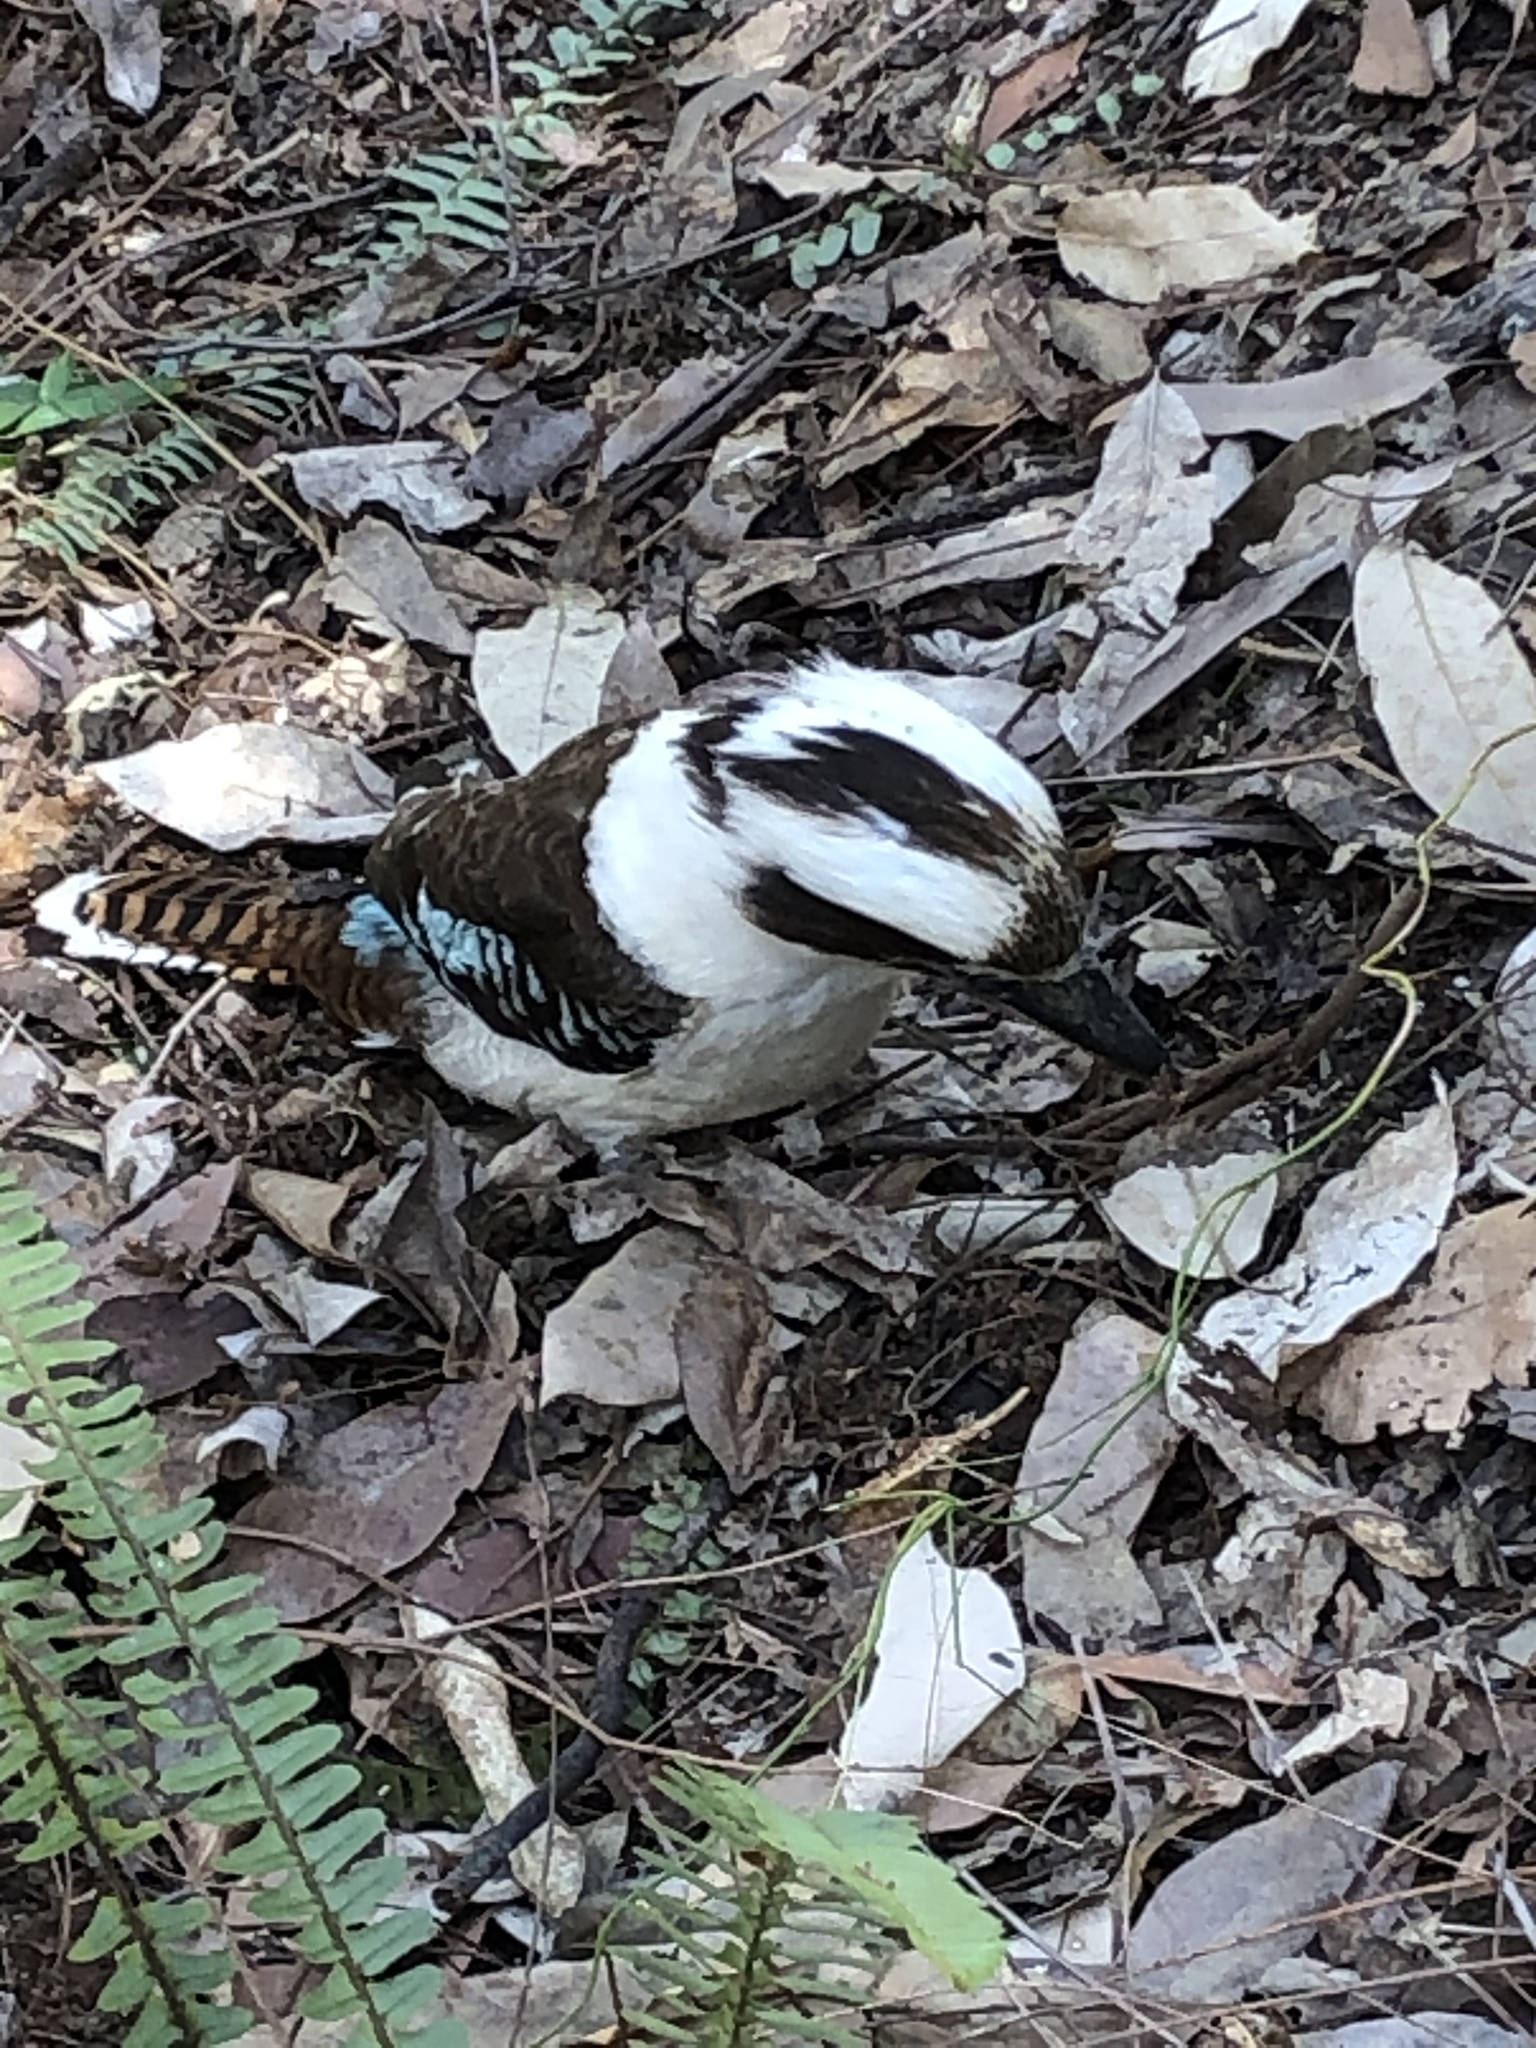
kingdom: Animalia
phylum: Chordata
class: Aves
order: Coraciiformes
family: Alcedinidae
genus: Dacelo
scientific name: Dacelo novaeguineae
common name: Laughing kookaburra
